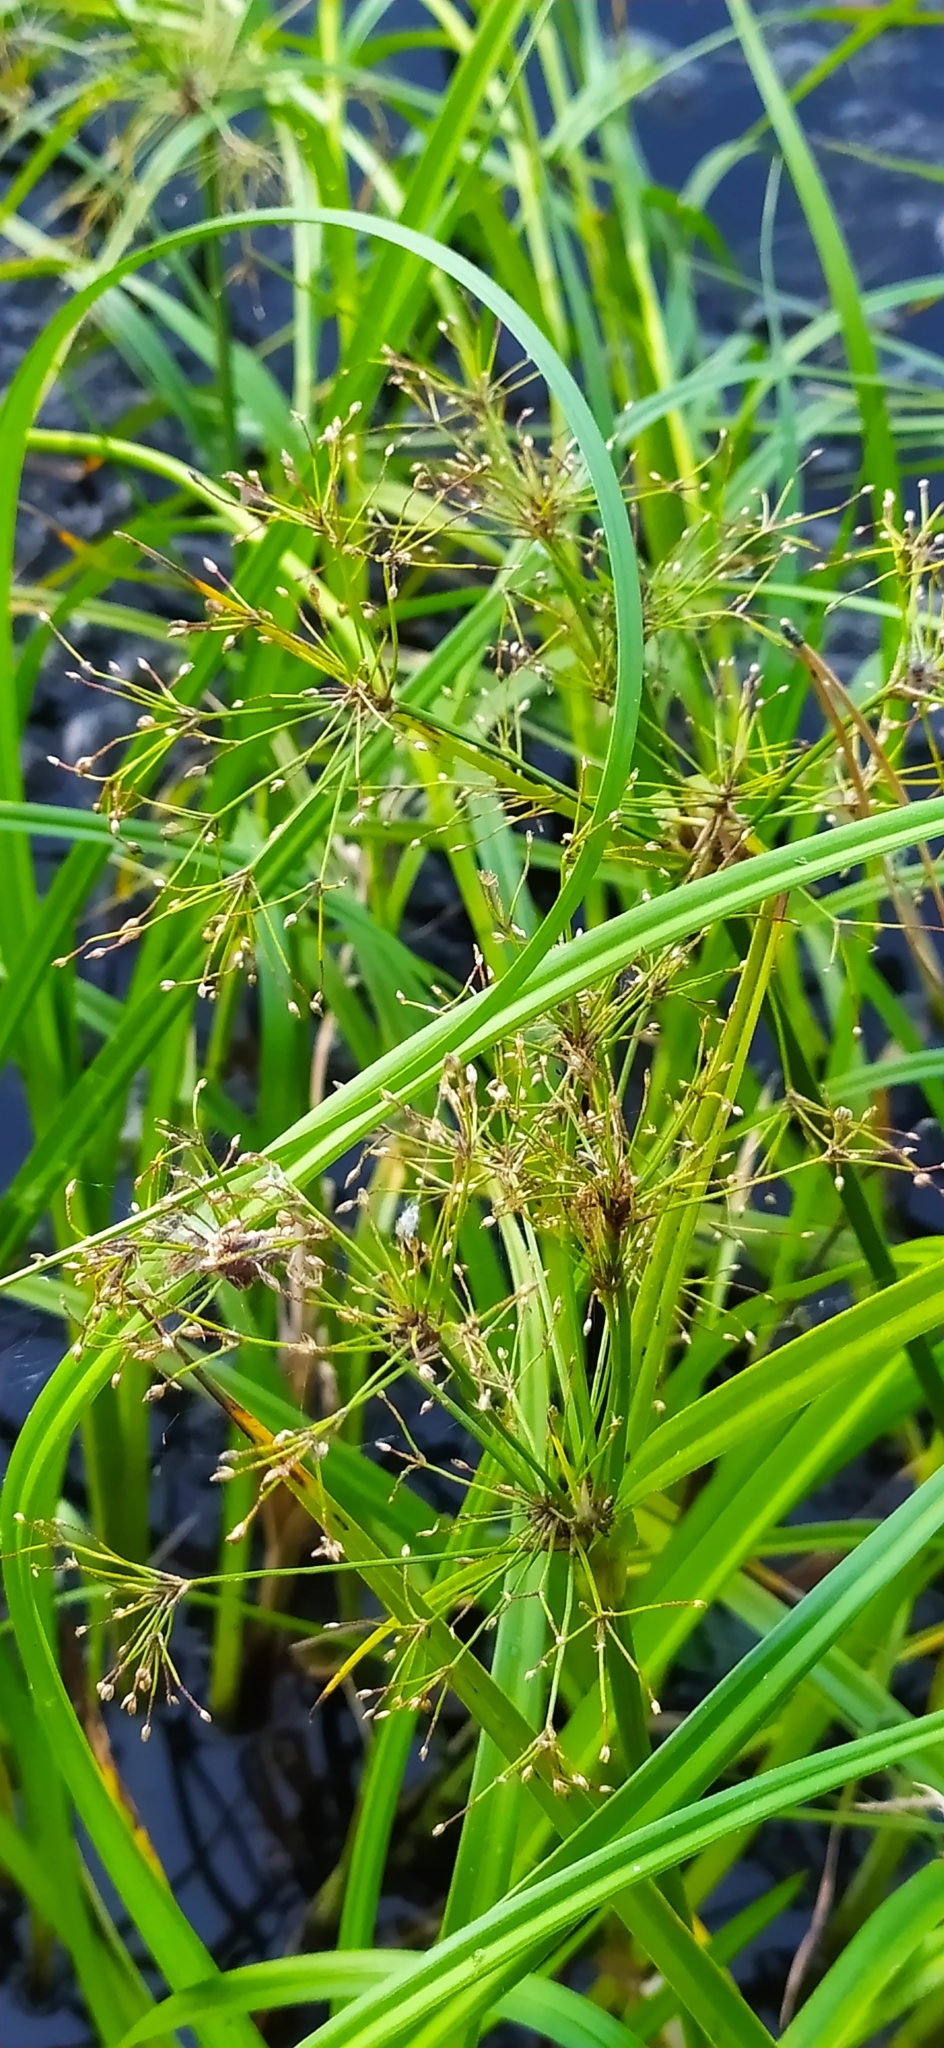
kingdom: Plantae
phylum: Tracheophyta
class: Liliopsida
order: Poales
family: Cyperaceae
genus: Scirpus
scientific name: Scirpus radicans
